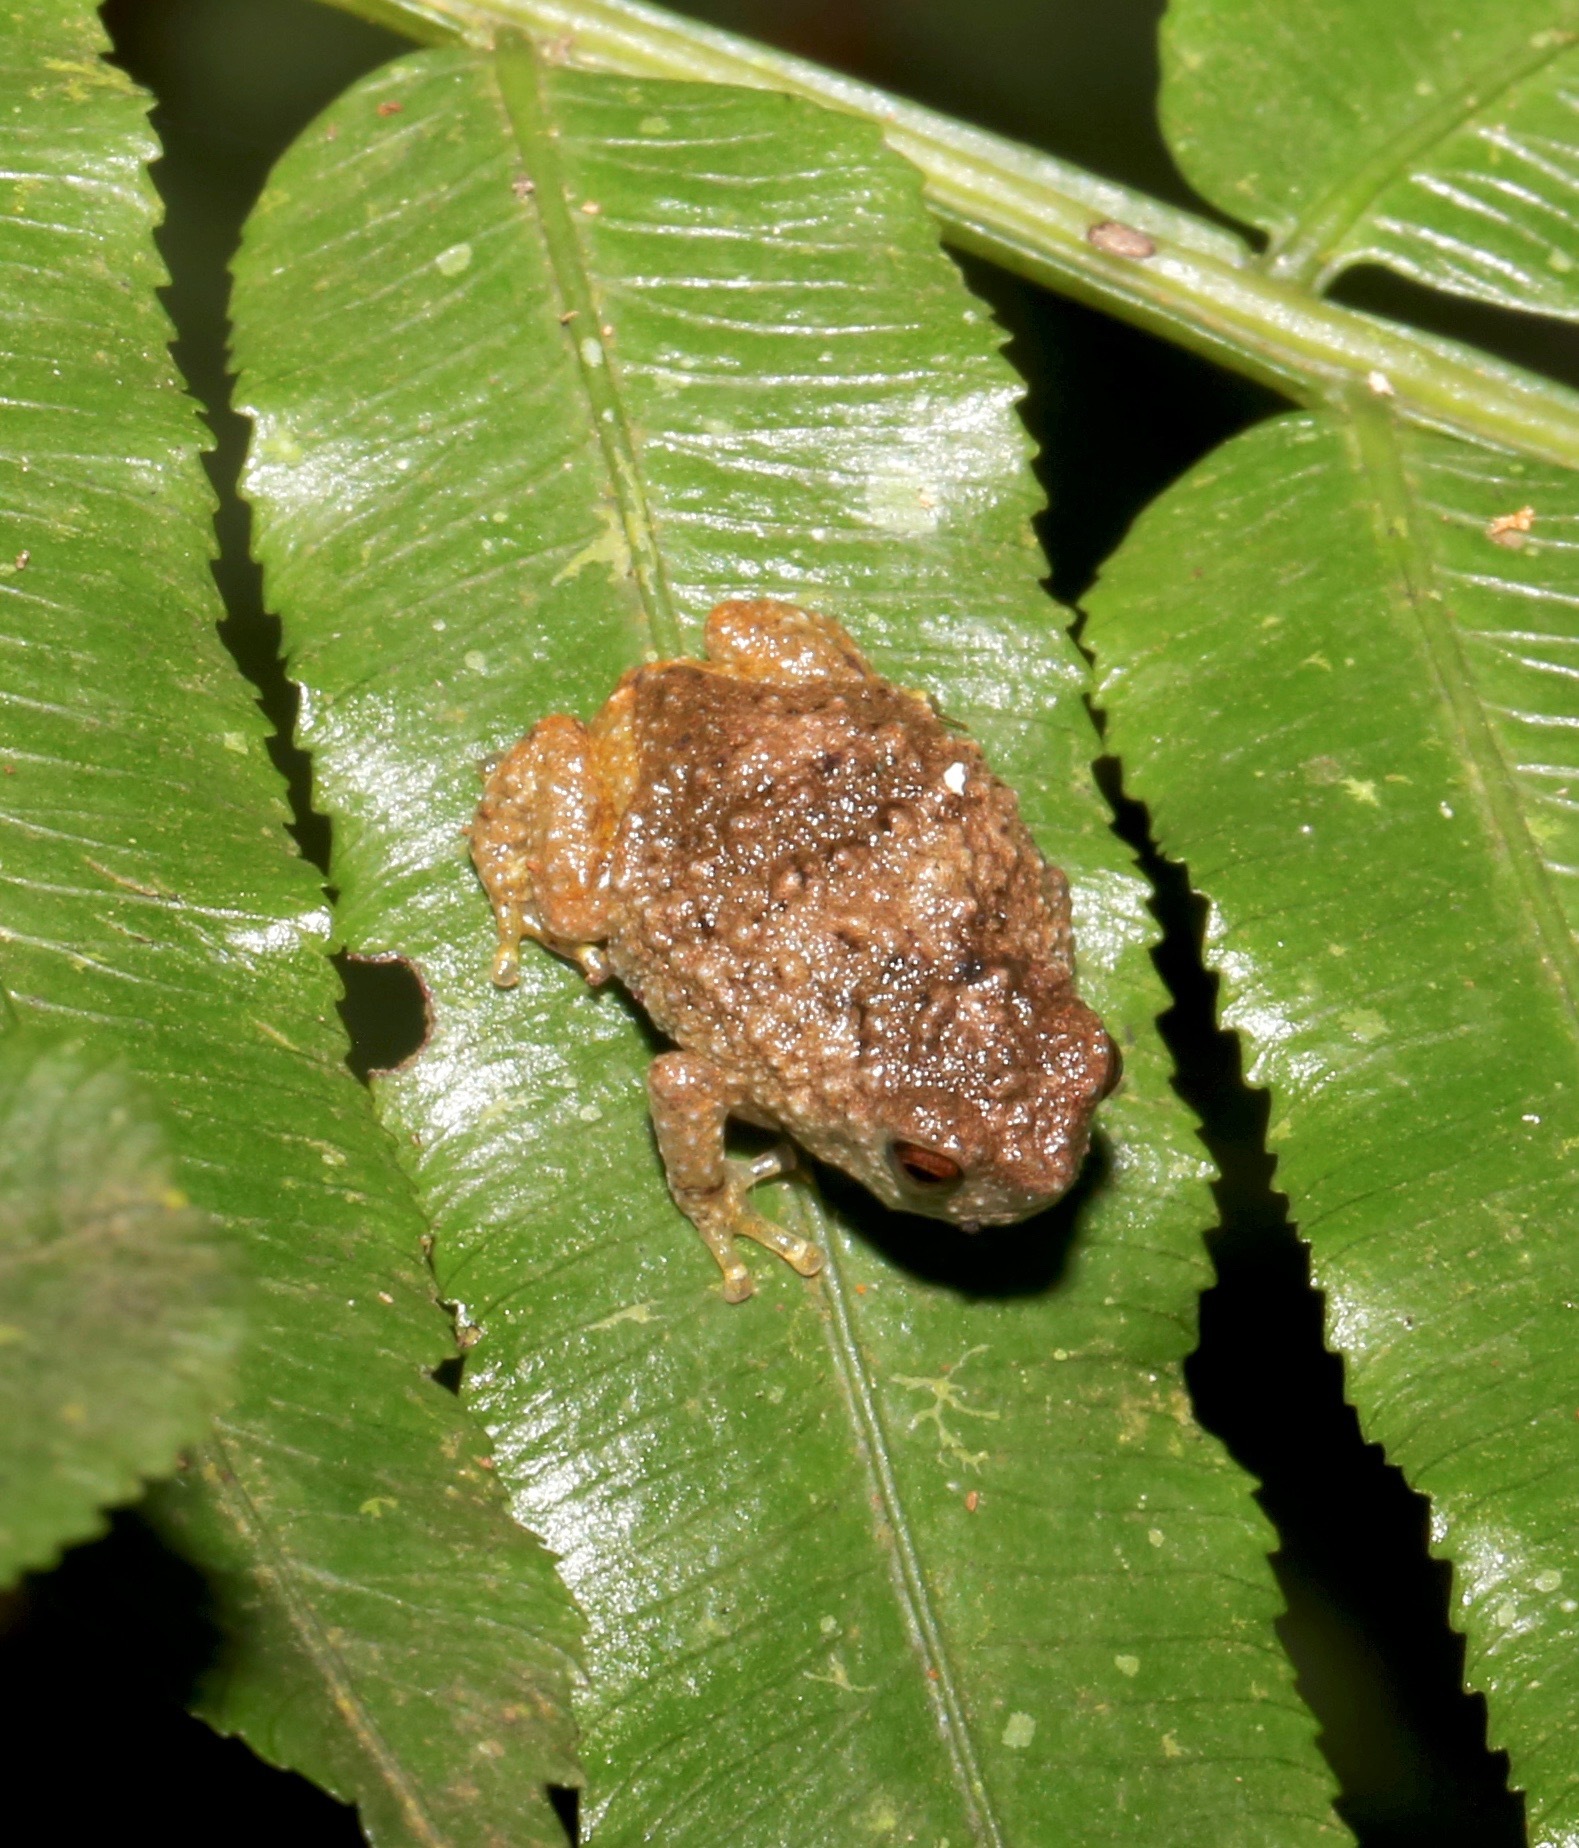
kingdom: Animalia
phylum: Chordata
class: Amphibia
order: Anura
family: Brevicipitidae
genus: Callulina
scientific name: Callulina kreffti
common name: Krefft's warty frog
